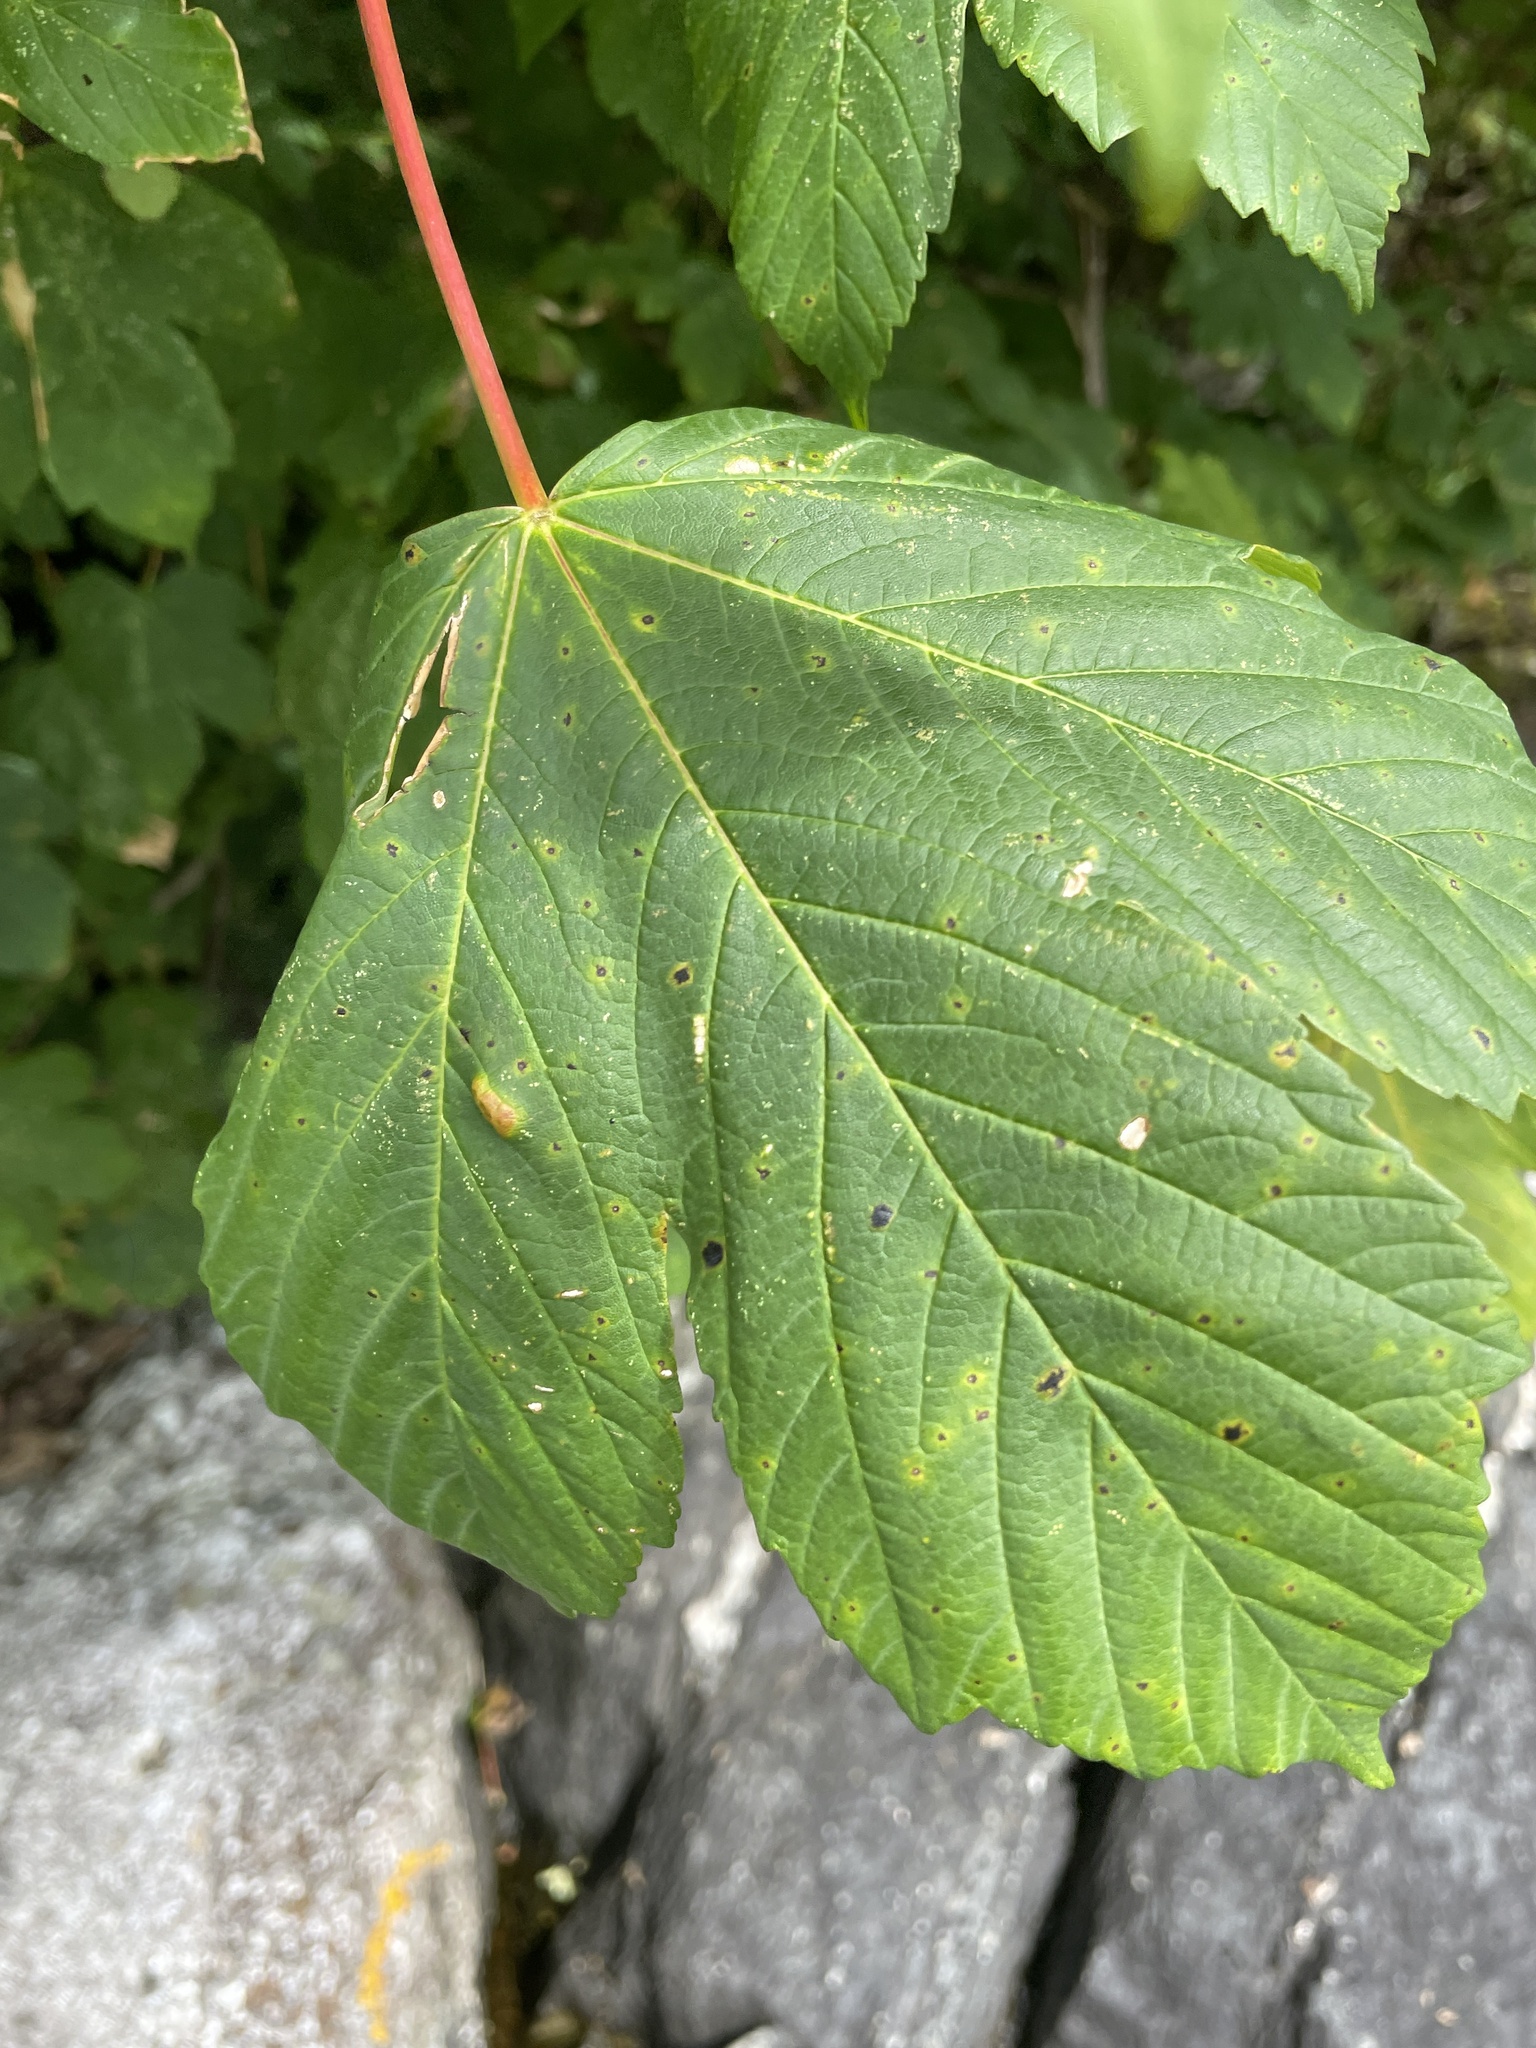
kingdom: Plantae
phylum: Tracheophyta
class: Magnoliopsida
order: Sapindales
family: Sapindaceae
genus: Acer
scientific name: Acer pseudoplatanus
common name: Sycamore
